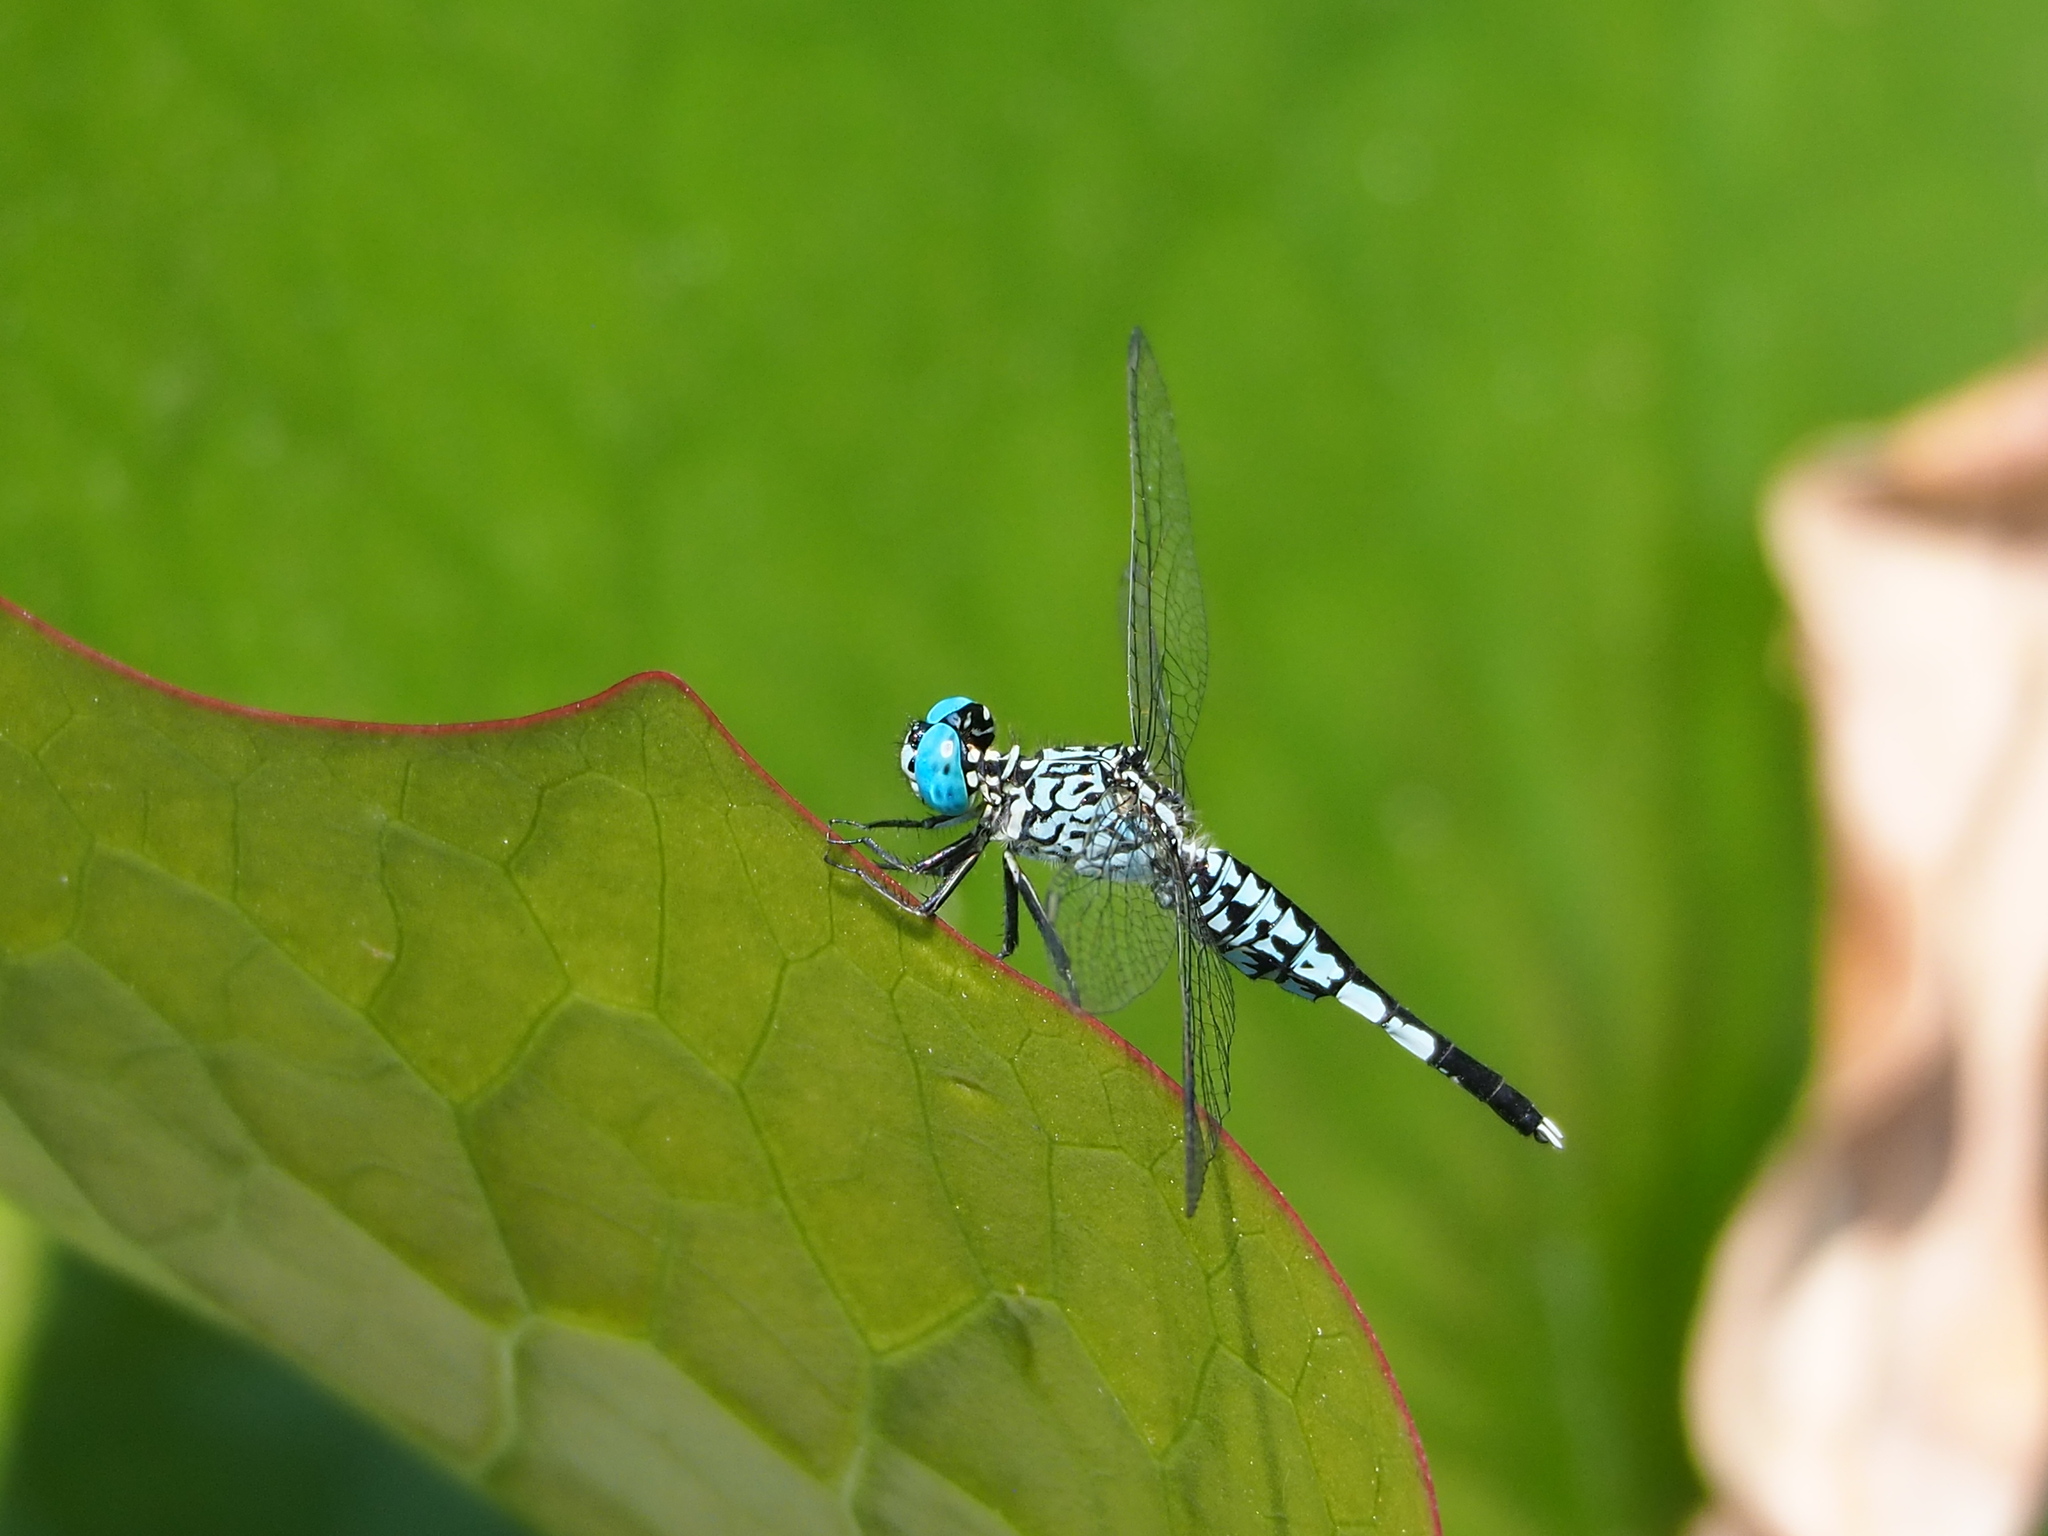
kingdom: Animalia
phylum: Arthropoda
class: Insecta
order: Odonata
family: Libellulidae
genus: Acisoma
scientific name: Acisoma panorpoides
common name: Asian pintail
